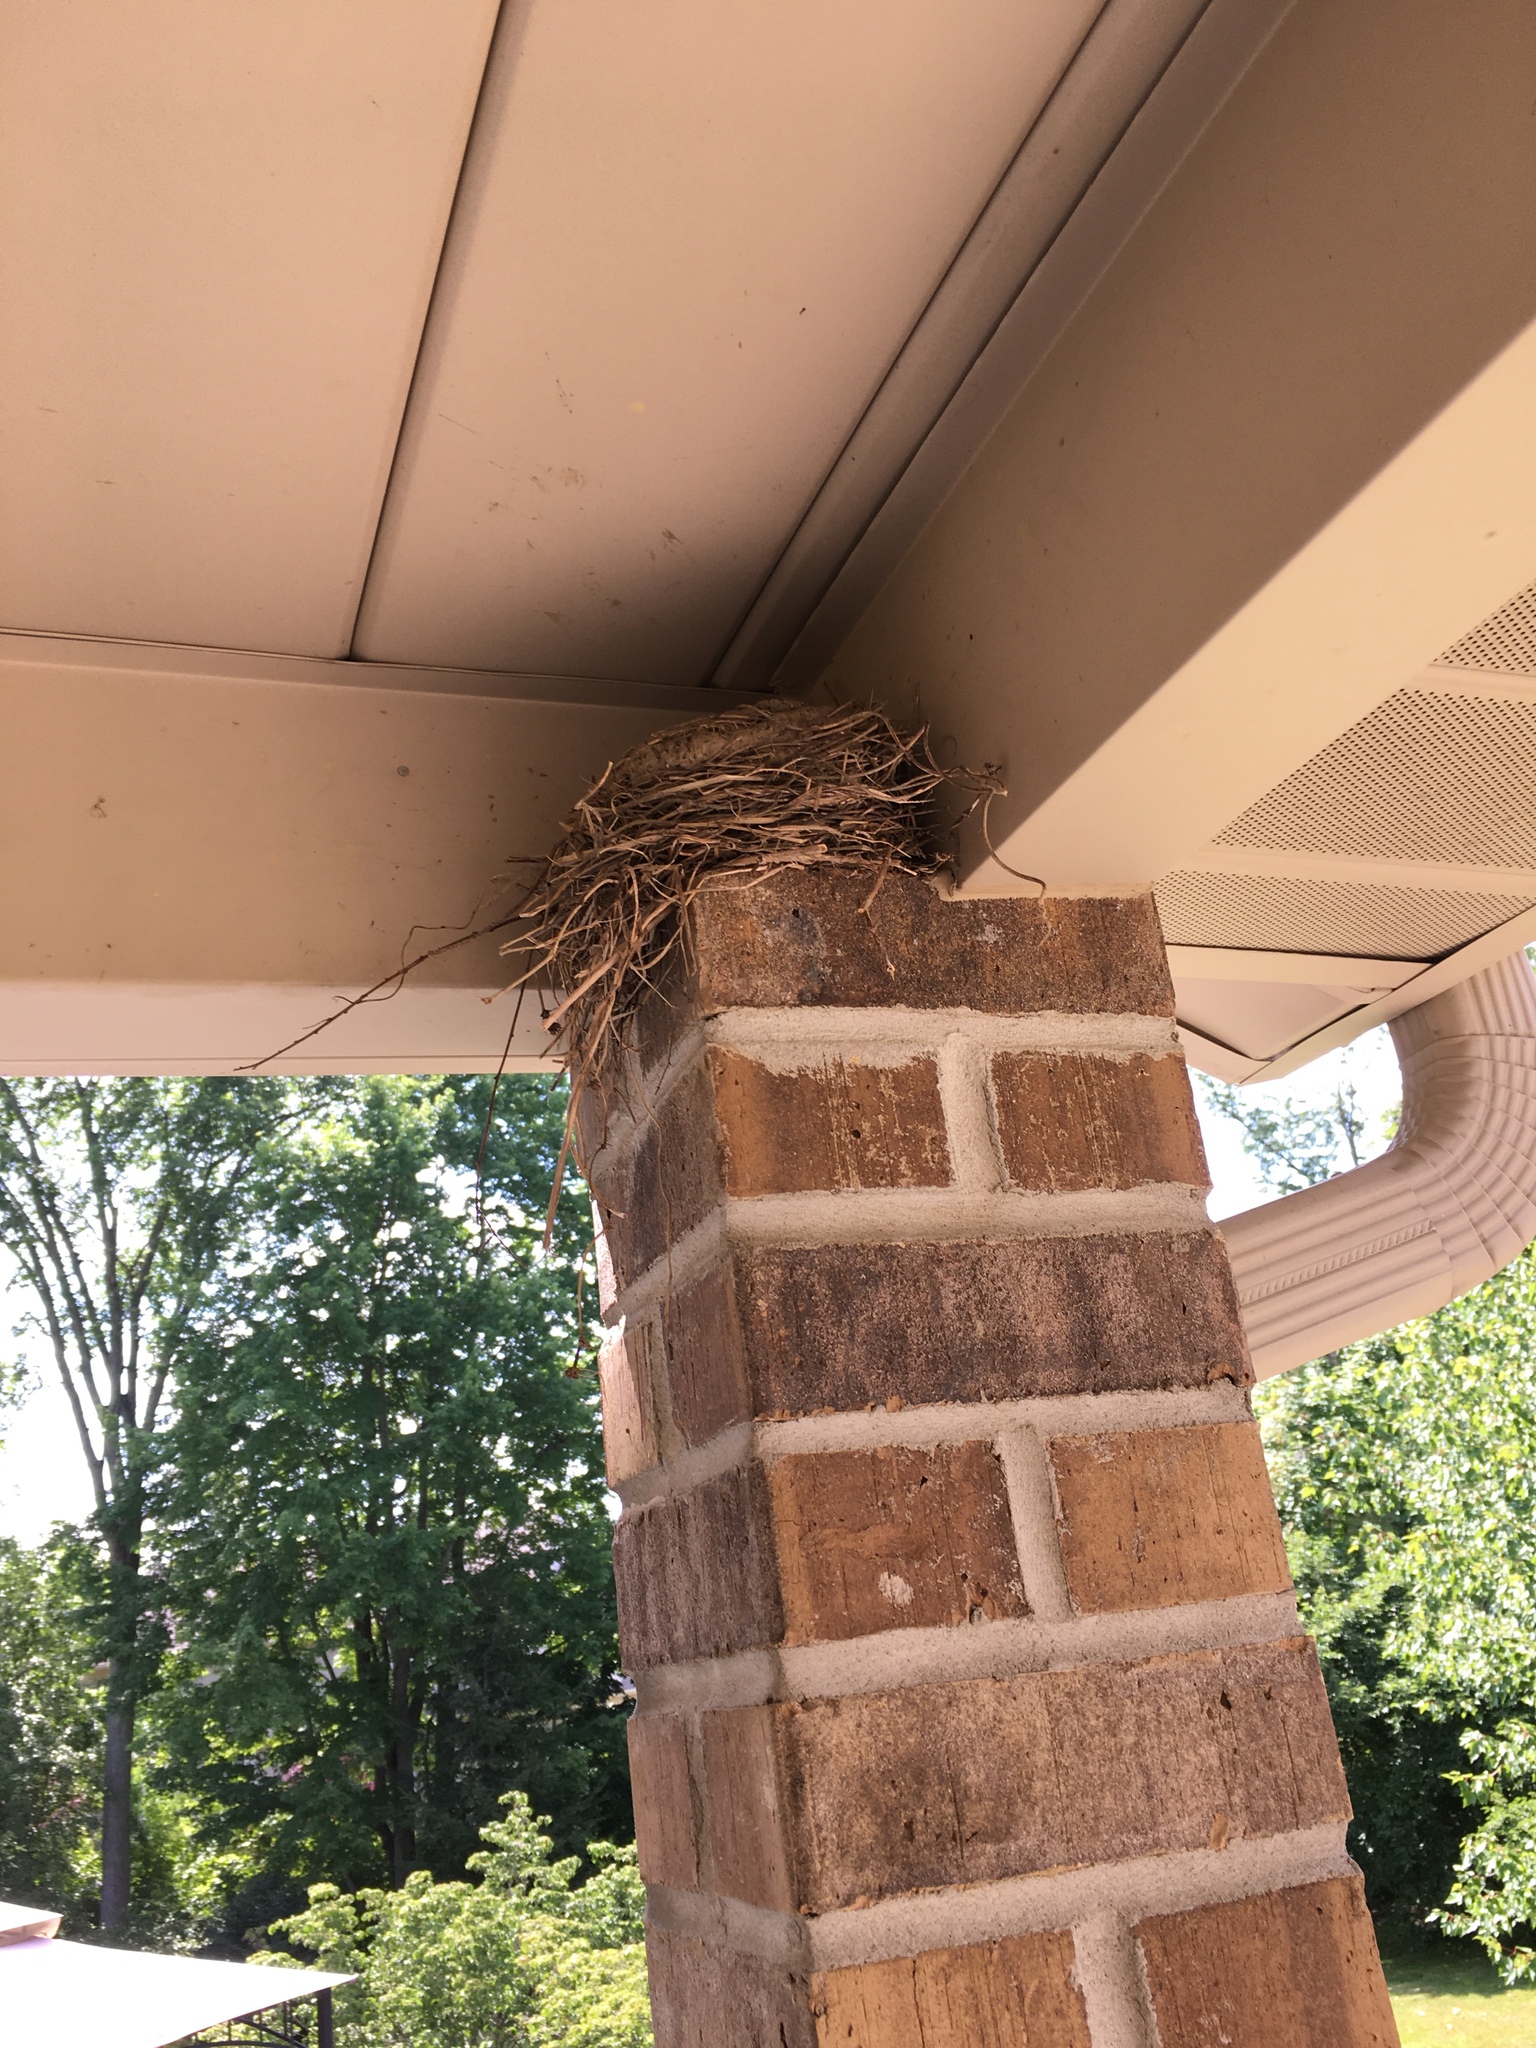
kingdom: Animalia
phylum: Chordata
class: Aves
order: Passeriformes
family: Turdidae
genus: Turdus
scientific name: Turdus migratorius
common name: American robin
